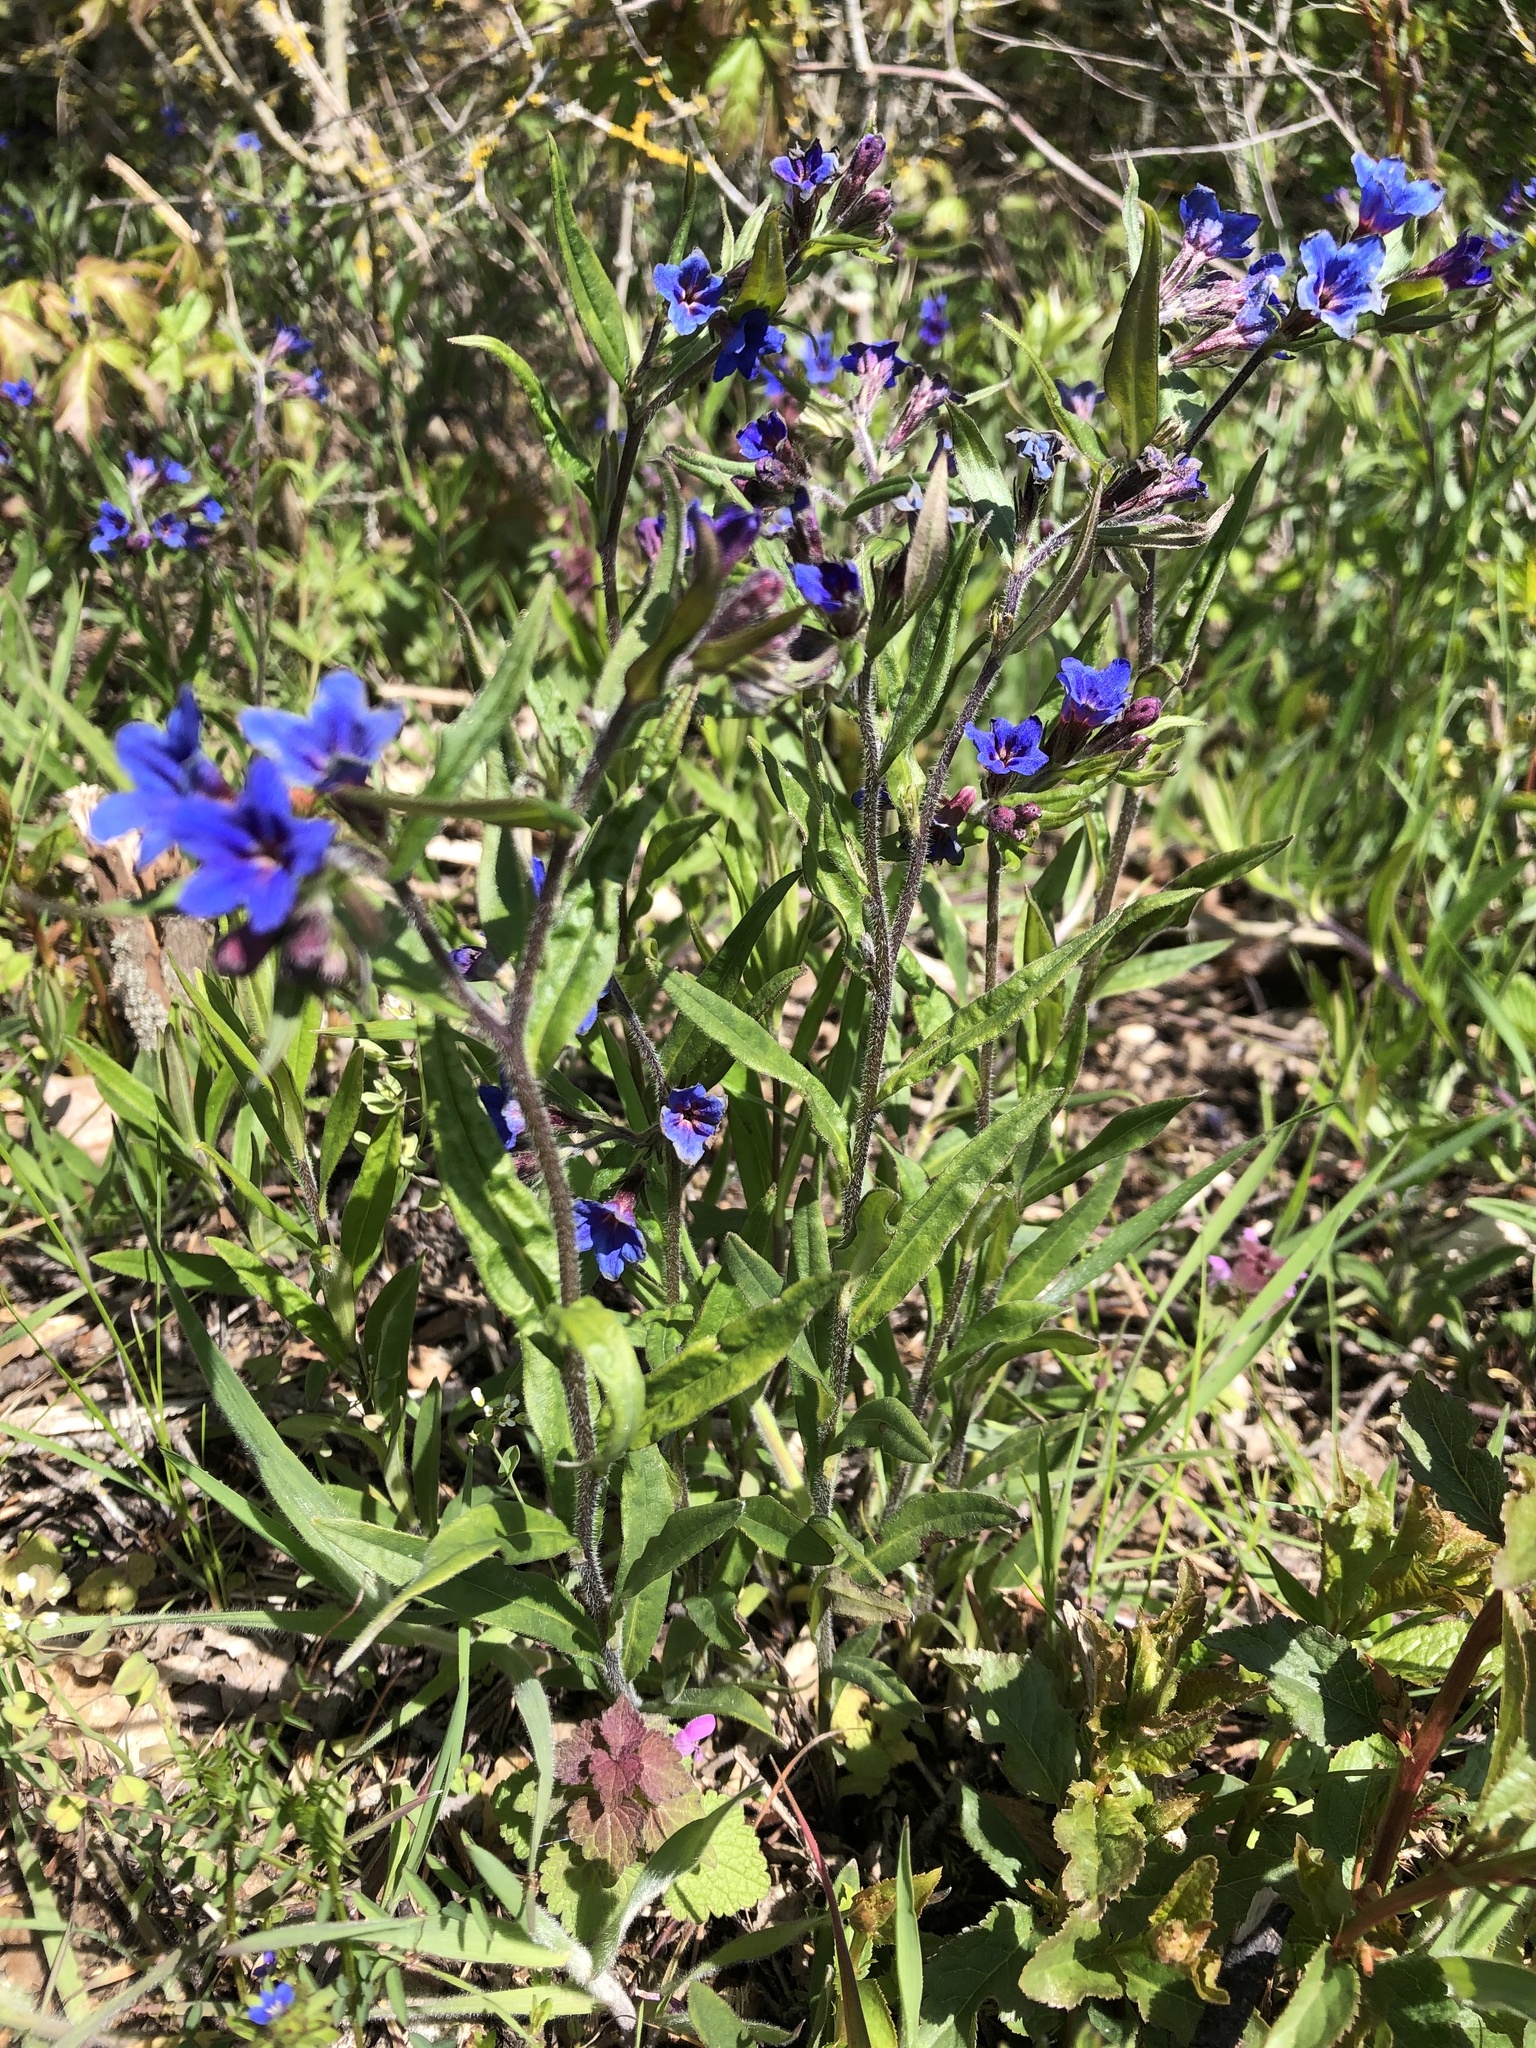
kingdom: Plantae
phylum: Tracheophyta
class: Magnoliopsida
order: Boraginales
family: Boraginaceae
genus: Aegonychon
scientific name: Aegonychon purpurocaeruleum
